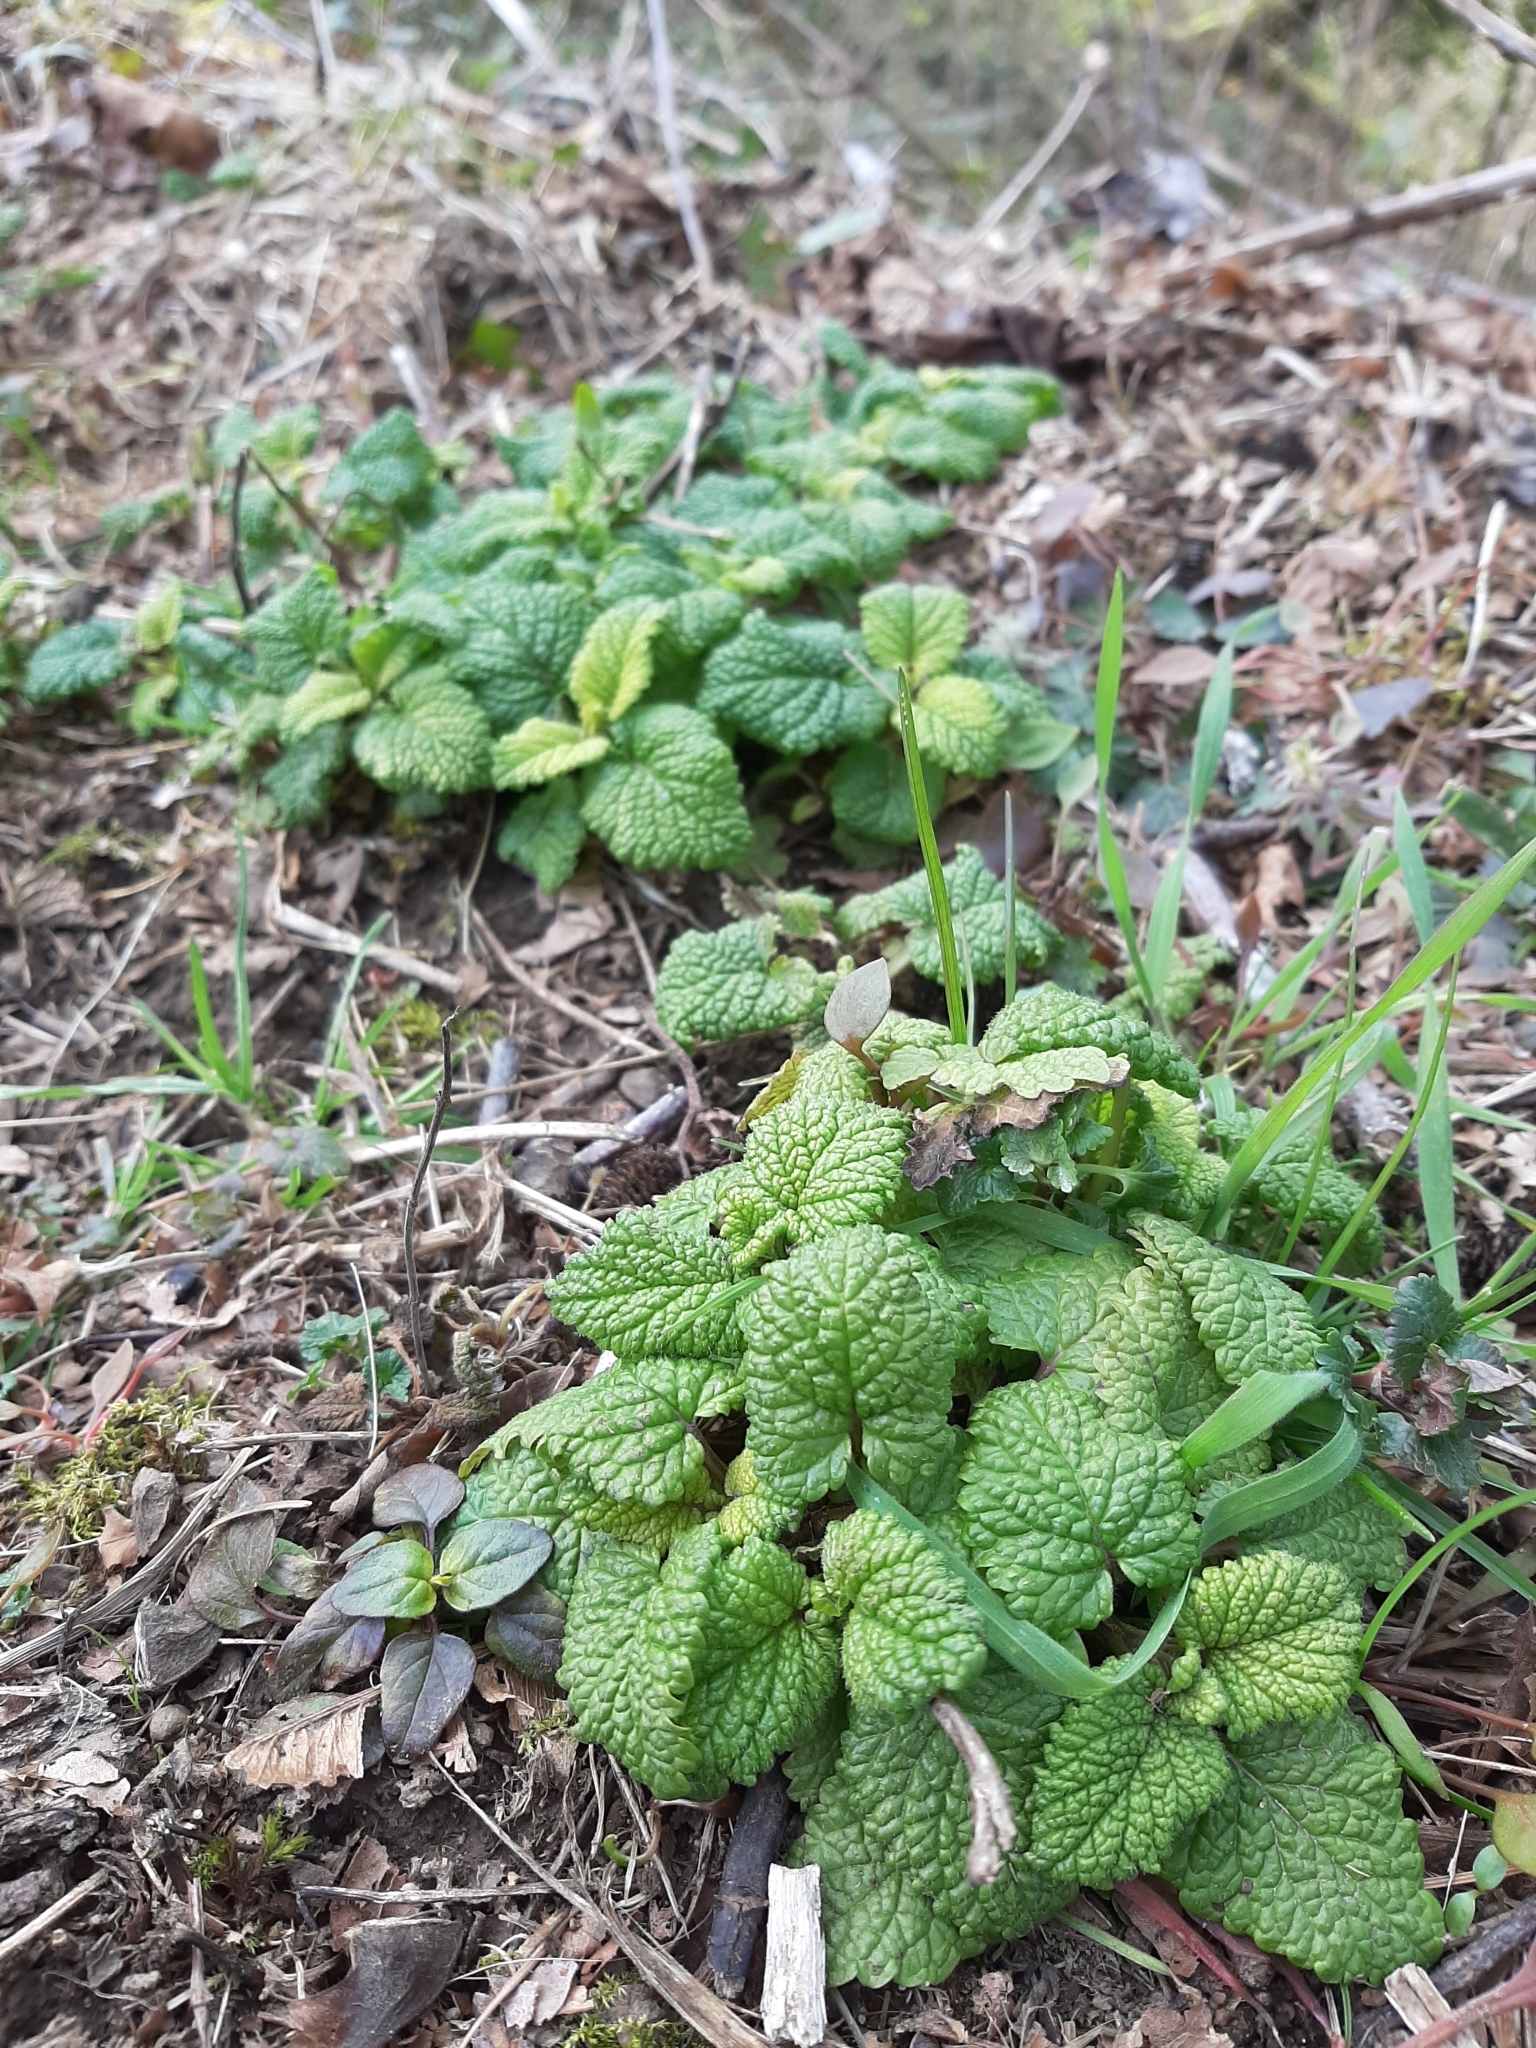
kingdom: Plantae
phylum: Tracheophyta
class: Magnoliopsida
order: Lamiales
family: Lamiaceae
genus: Melissa
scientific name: Melissa officinalis
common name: Balm
